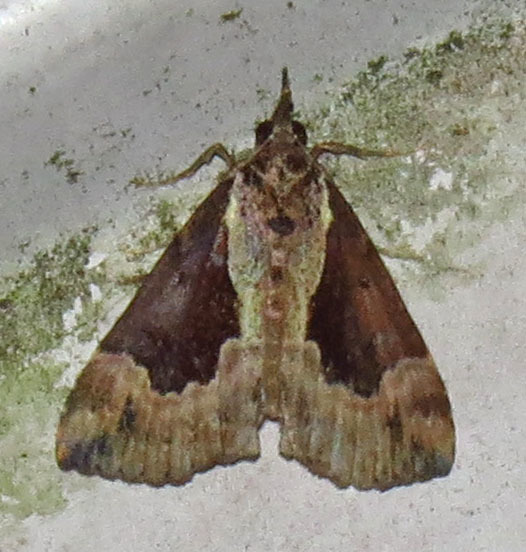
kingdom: Animalia
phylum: Arthropoda
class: Insecta
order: Lepidoptera
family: Erebidae
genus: Hypena
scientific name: Hypena baltimoralis
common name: Baltimore snout
